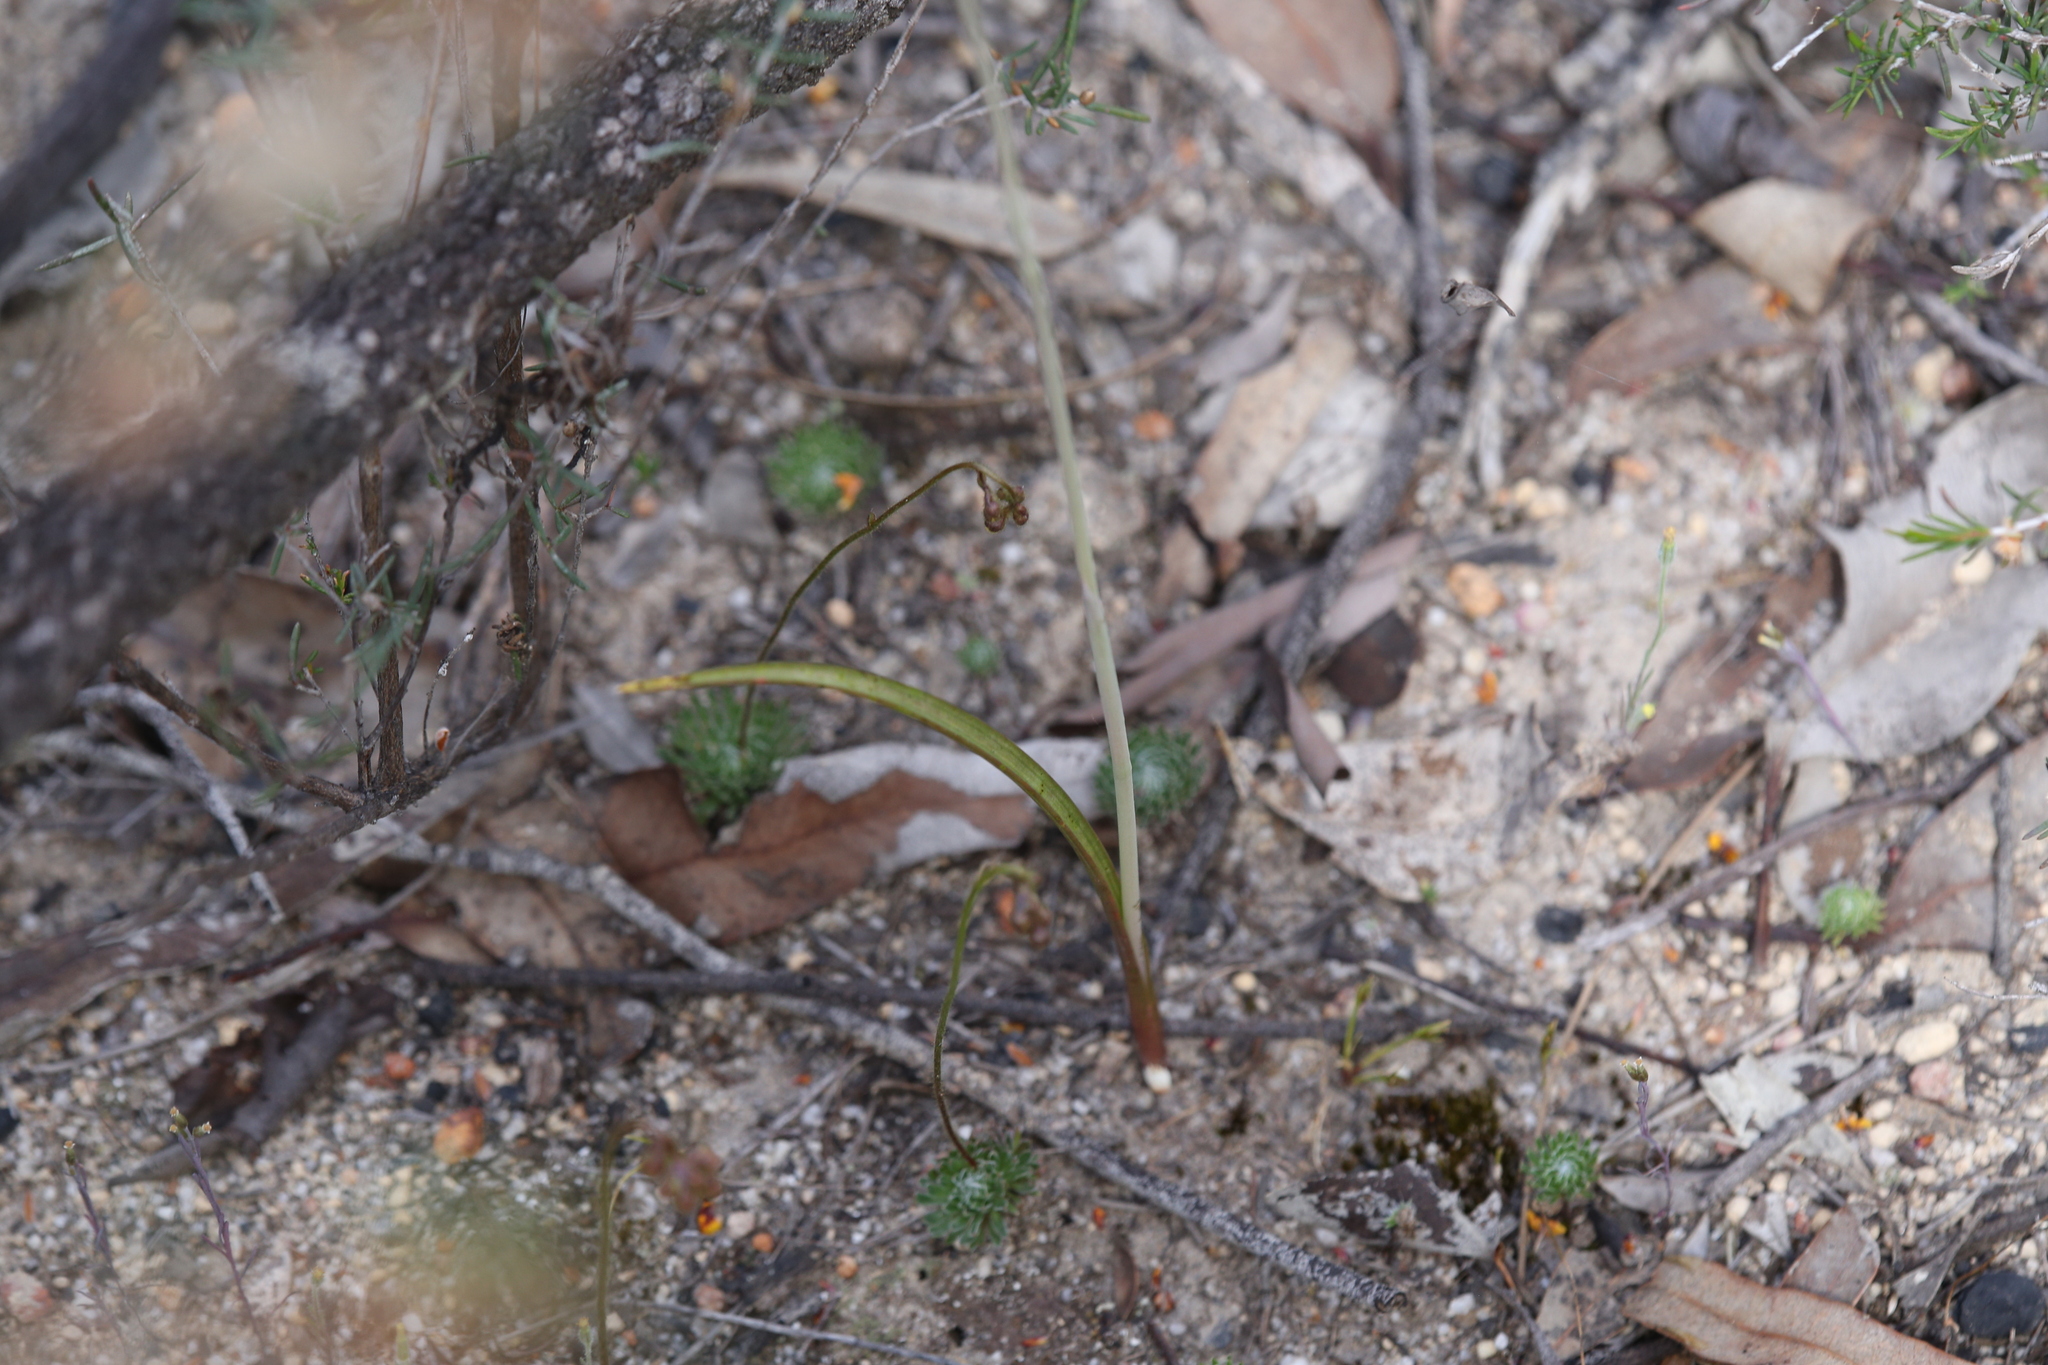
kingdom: Plantae
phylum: Tracheophyta
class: Liliopsida
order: Asparagales
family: Orchidaceae
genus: Thelymitra
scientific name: Thelymitra graminea
